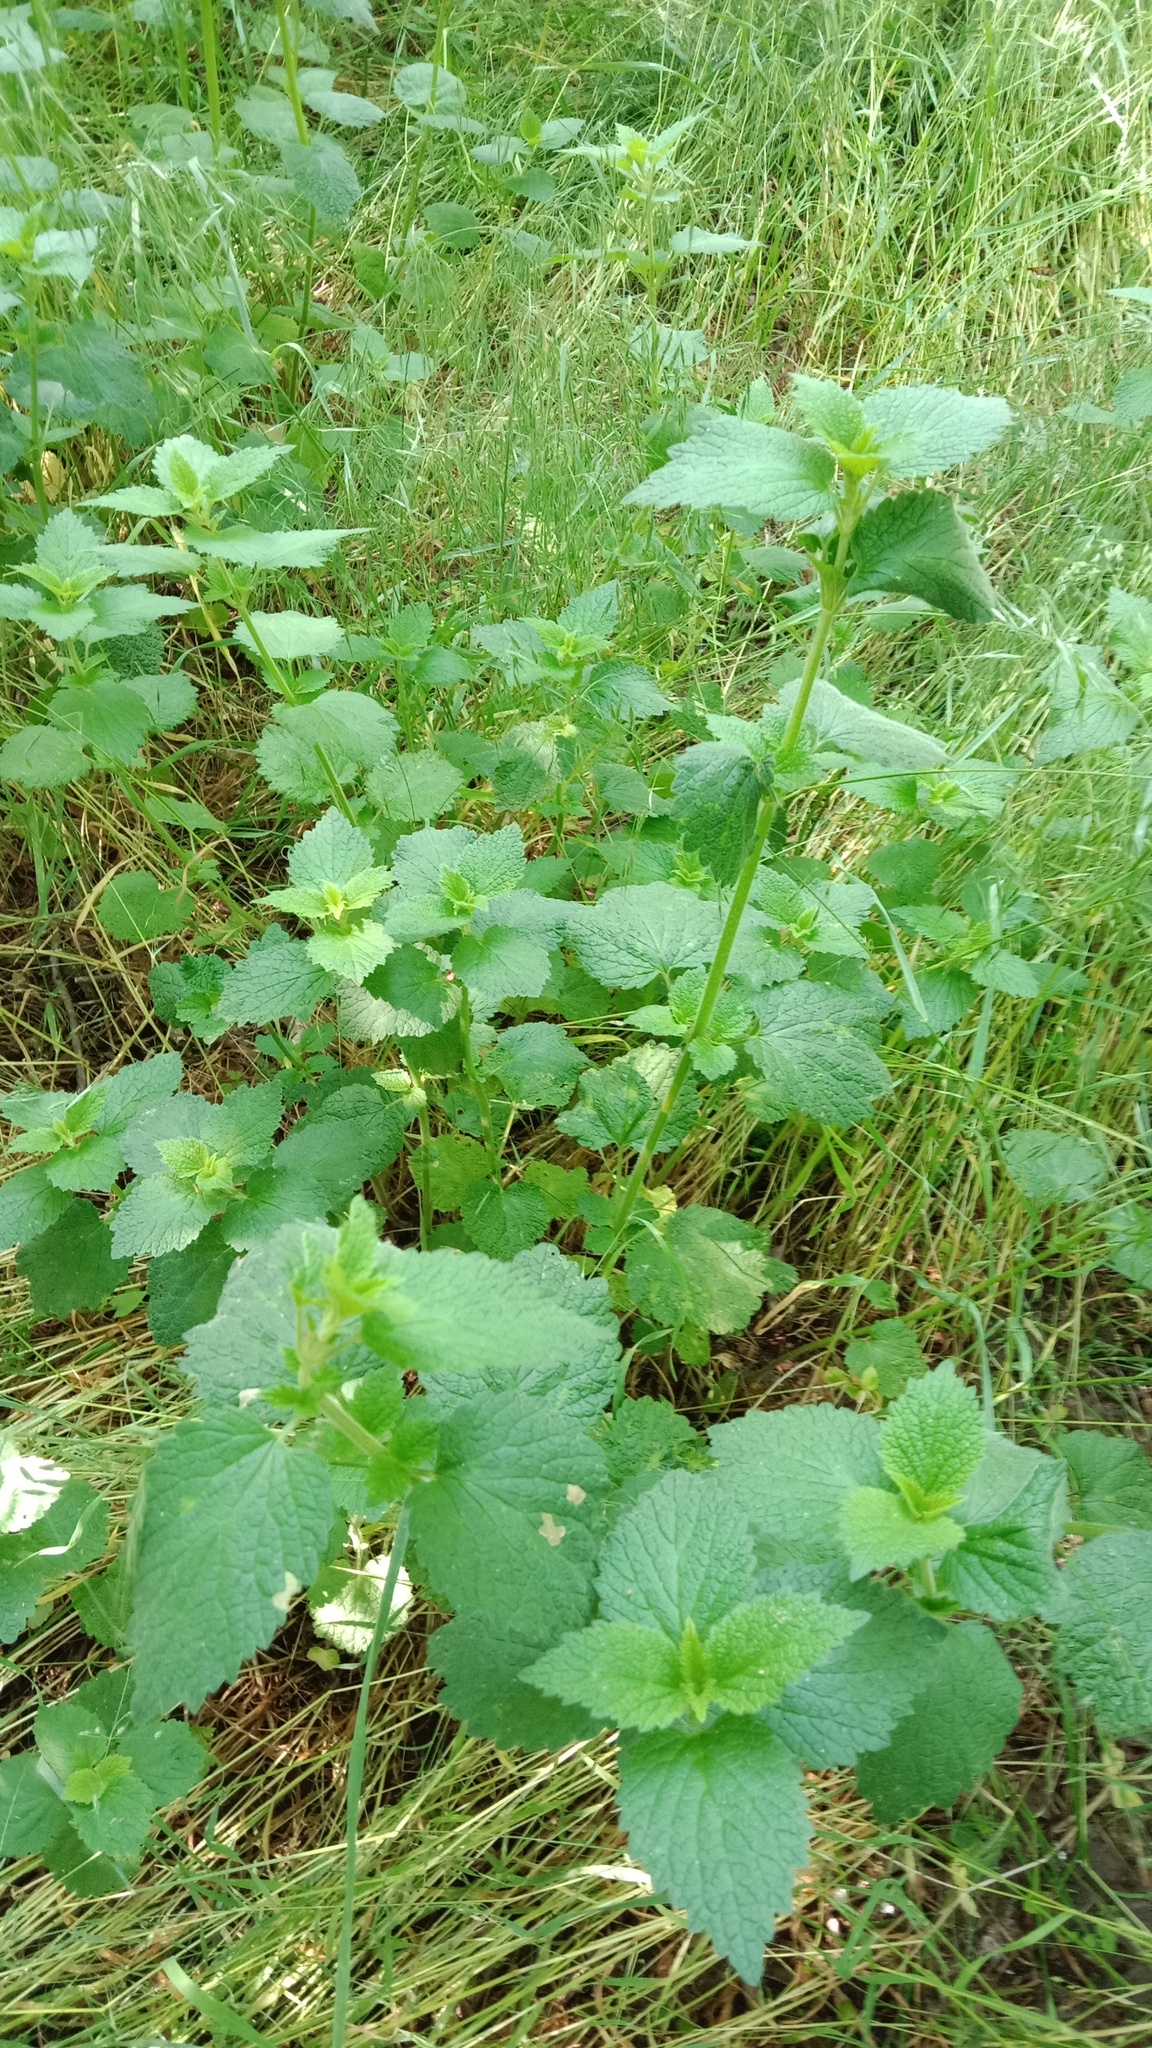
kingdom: Plantae
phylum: Tracheophyta
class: Magnoliopsida
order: Lamiales
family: Lamiaceae
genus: Ballota
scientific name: Ballota nigra
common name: Black horehound
